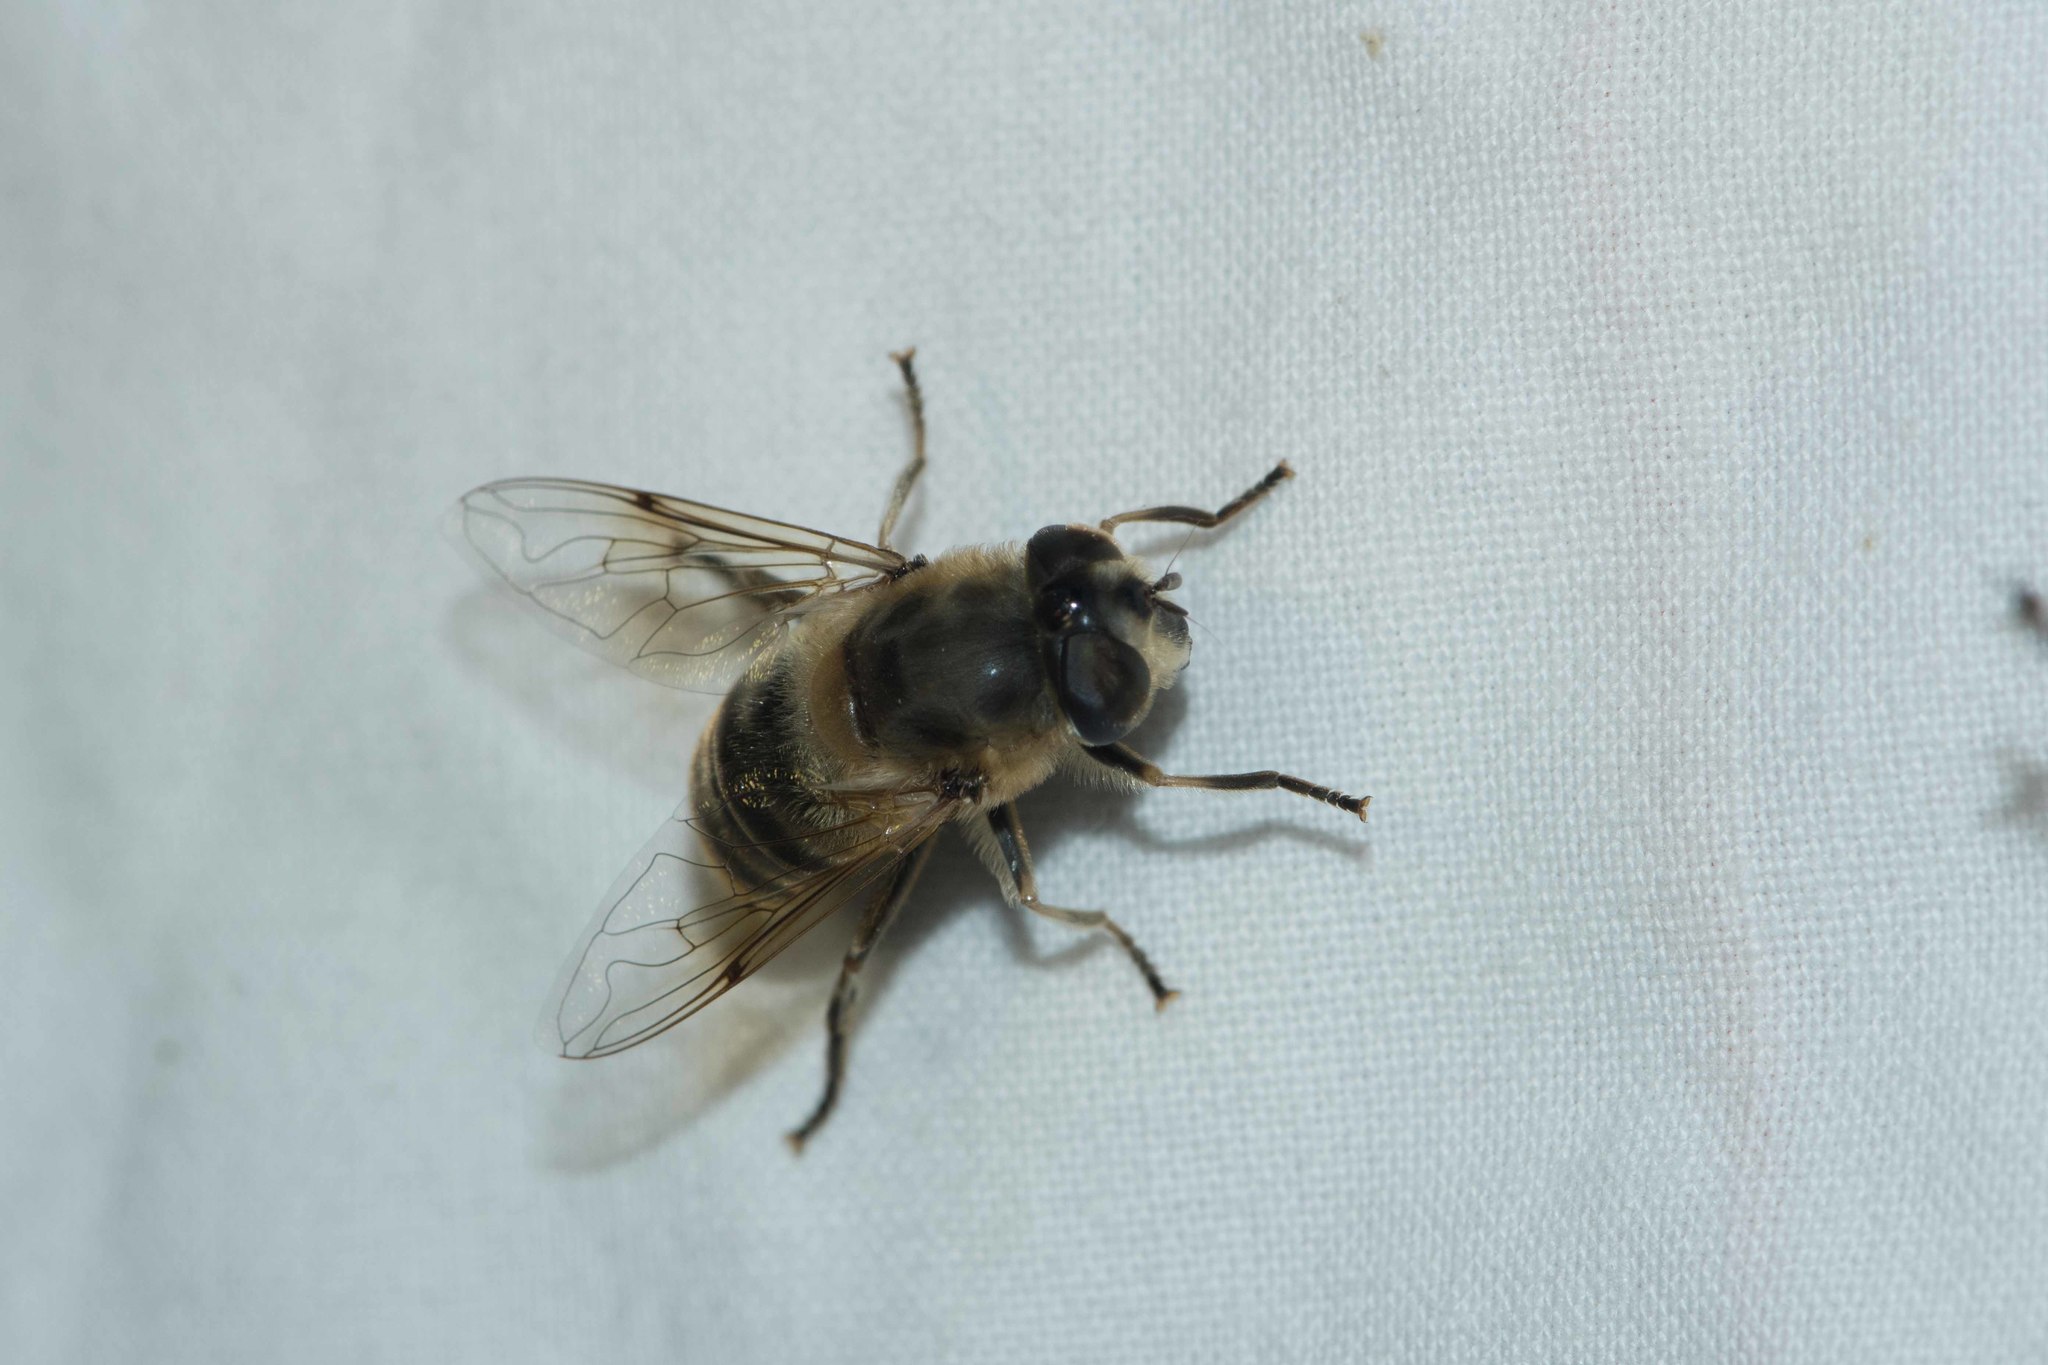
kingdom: Animalia
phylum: Arthropoda
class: Insecta
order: Diptera
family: Syrphidae
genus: Eristalis
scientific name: Eristalis tenax
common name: Drone fly
